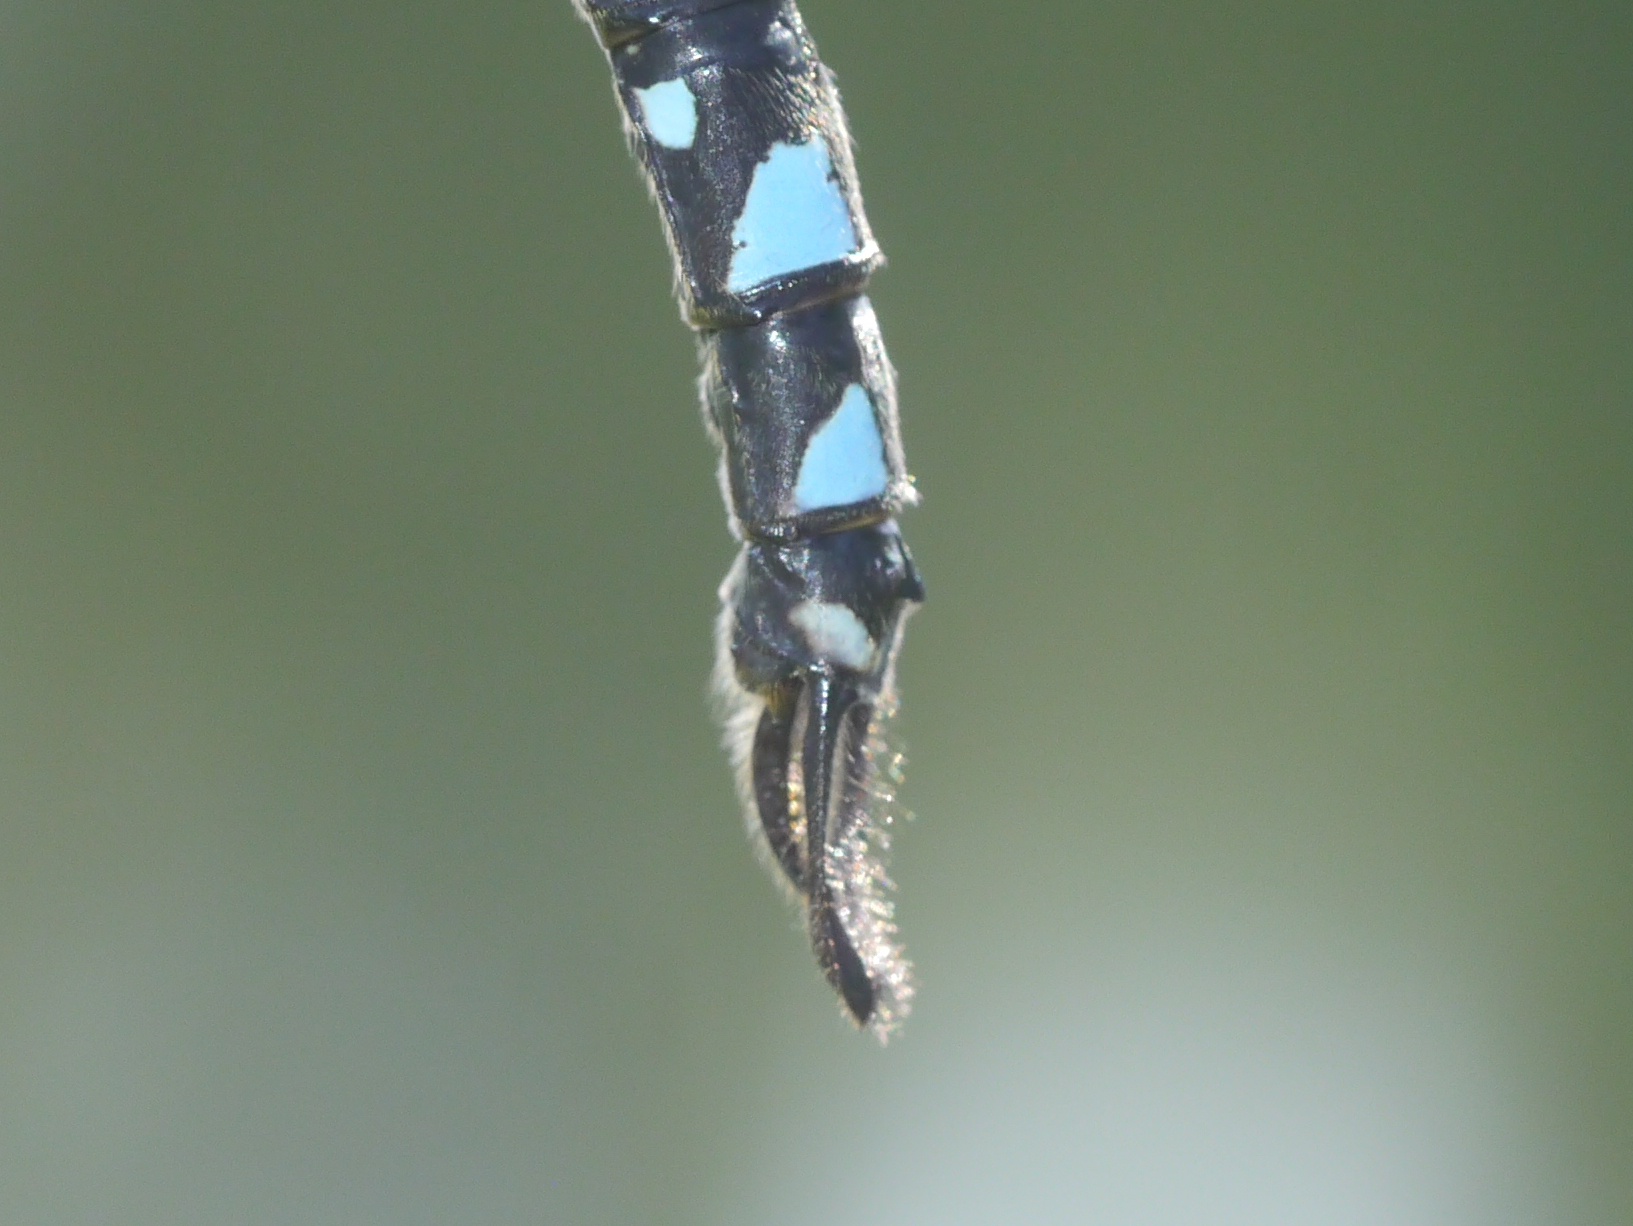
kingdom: Animalia
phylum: Arthropoda
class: Insecta
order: Odonata
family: Aeshnidae
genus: Aeshna
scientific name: Aeshna interrupta
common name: Variable darner
